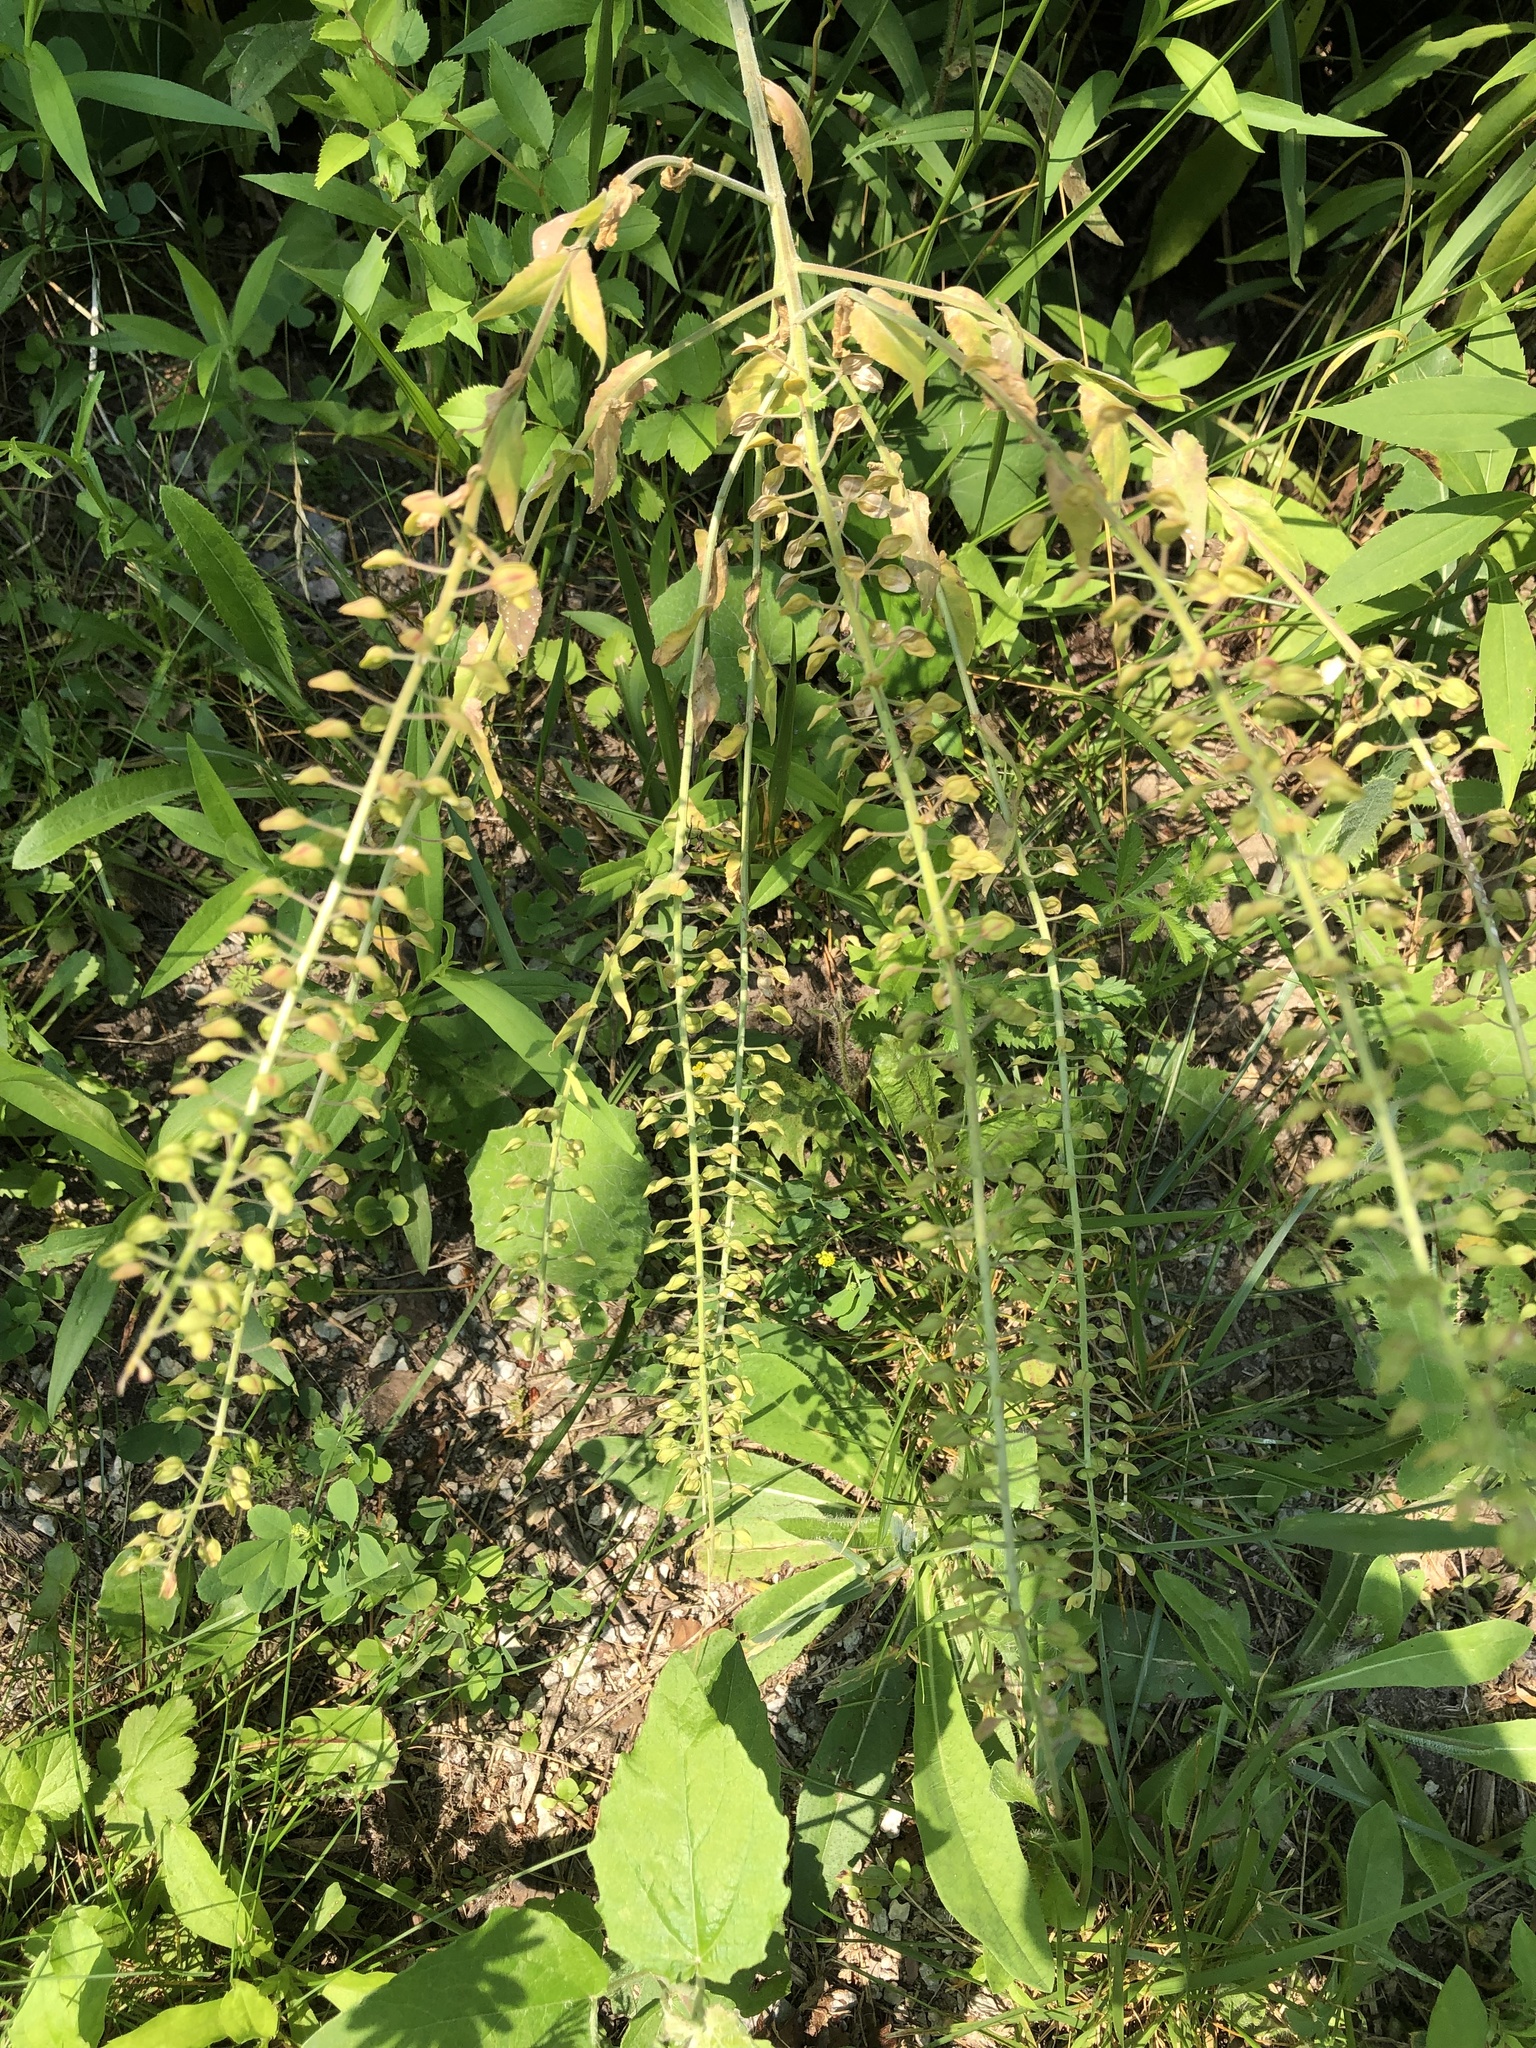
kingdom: Plantae
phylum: Tracheophyta
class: Magnoliopsida
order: Brassicales
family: Brassicaceae
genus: Lepidium
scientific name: Lepidium campestre
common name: Field pepperwort
